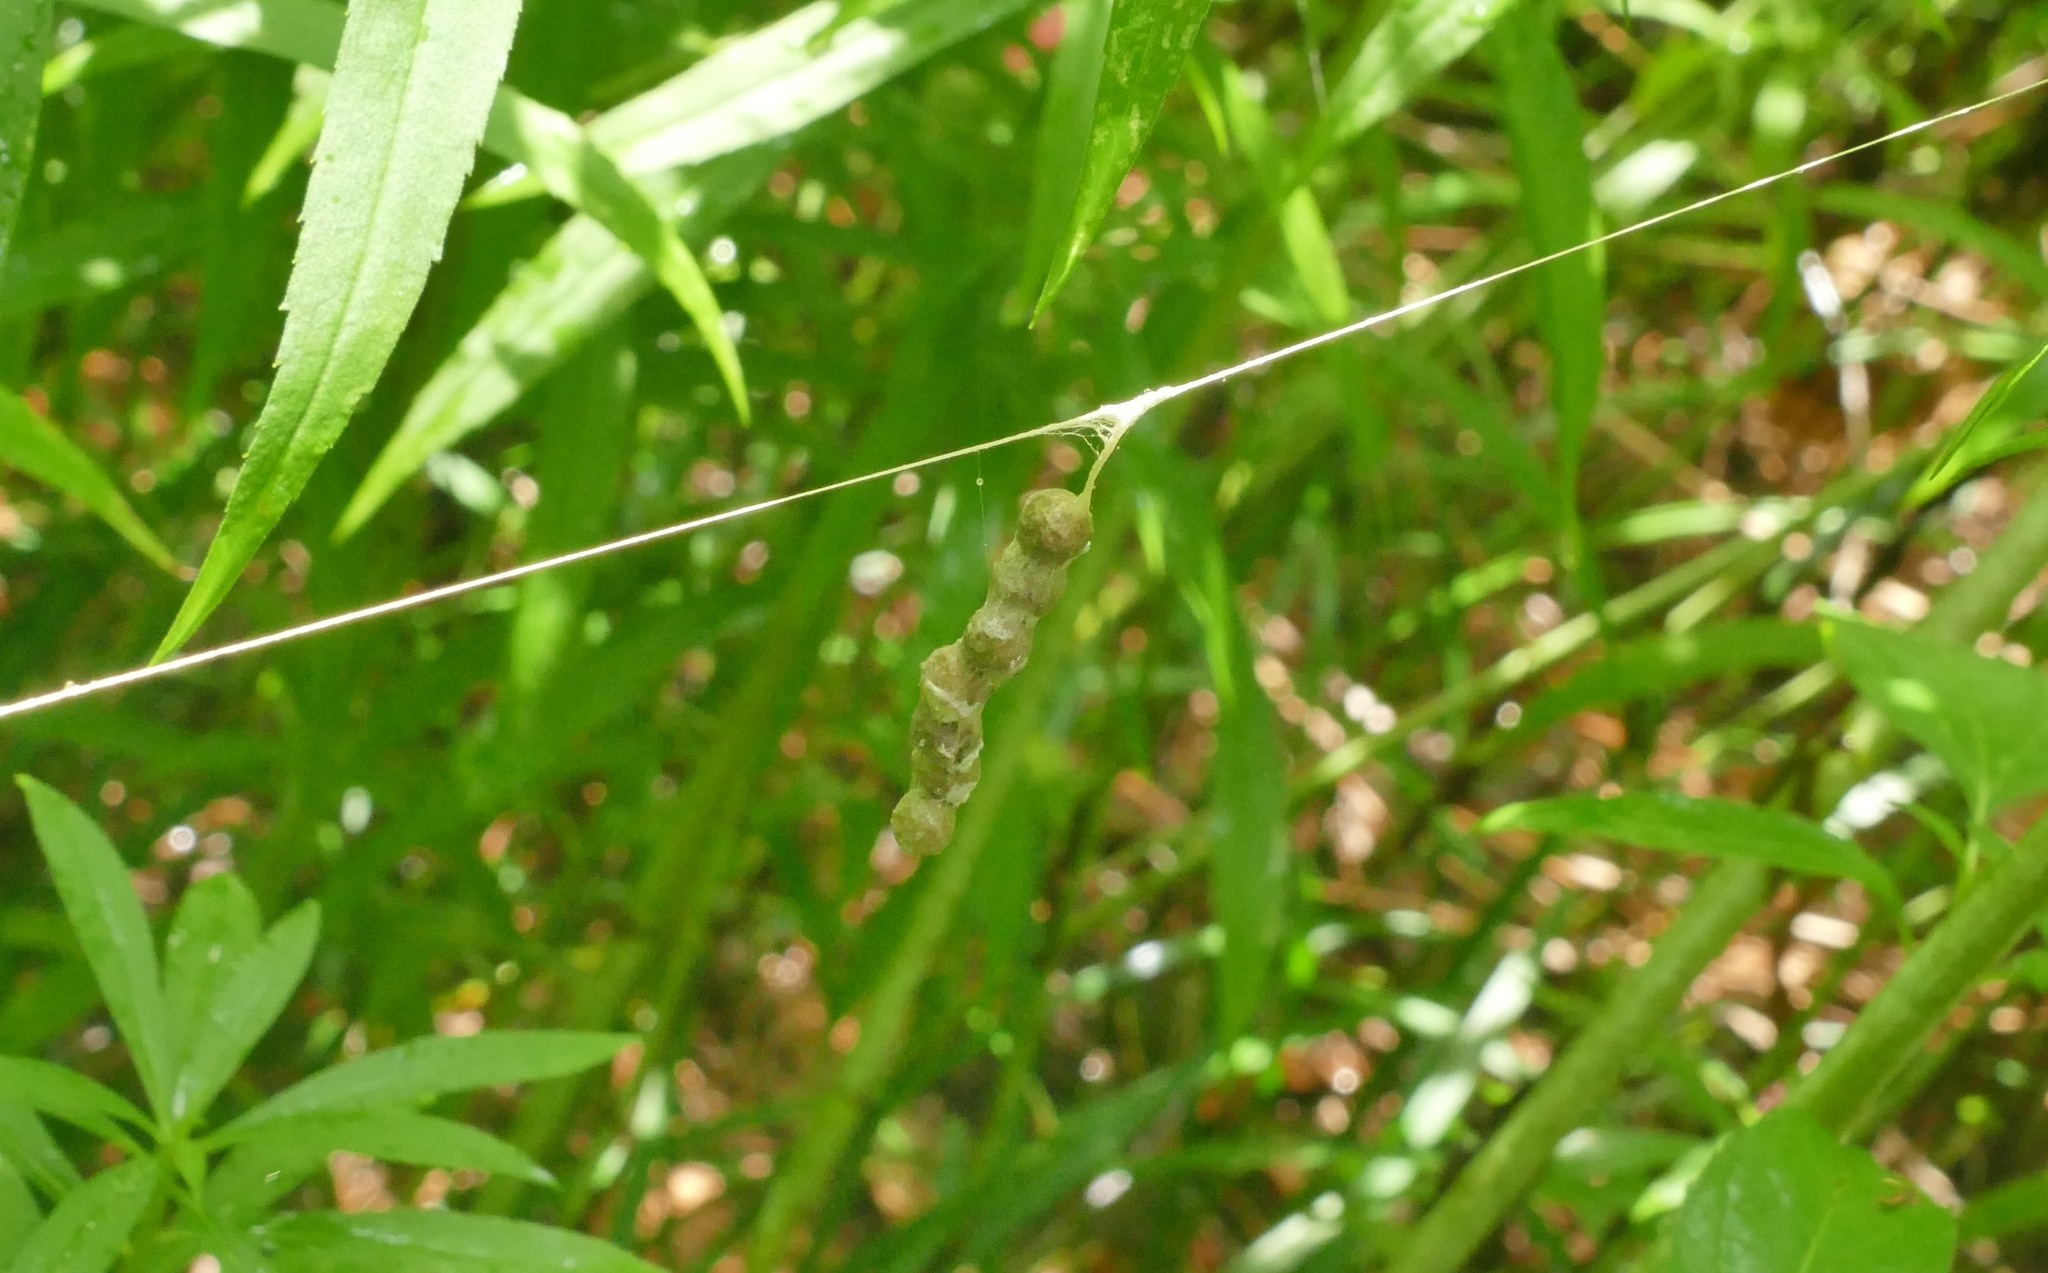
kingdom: Animalia
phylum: Arthropoda
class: Arachnida
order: Araneae
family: Araneidae
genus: Mecynogea
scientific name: Mecynogea lemniscata
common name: Orb weavers
